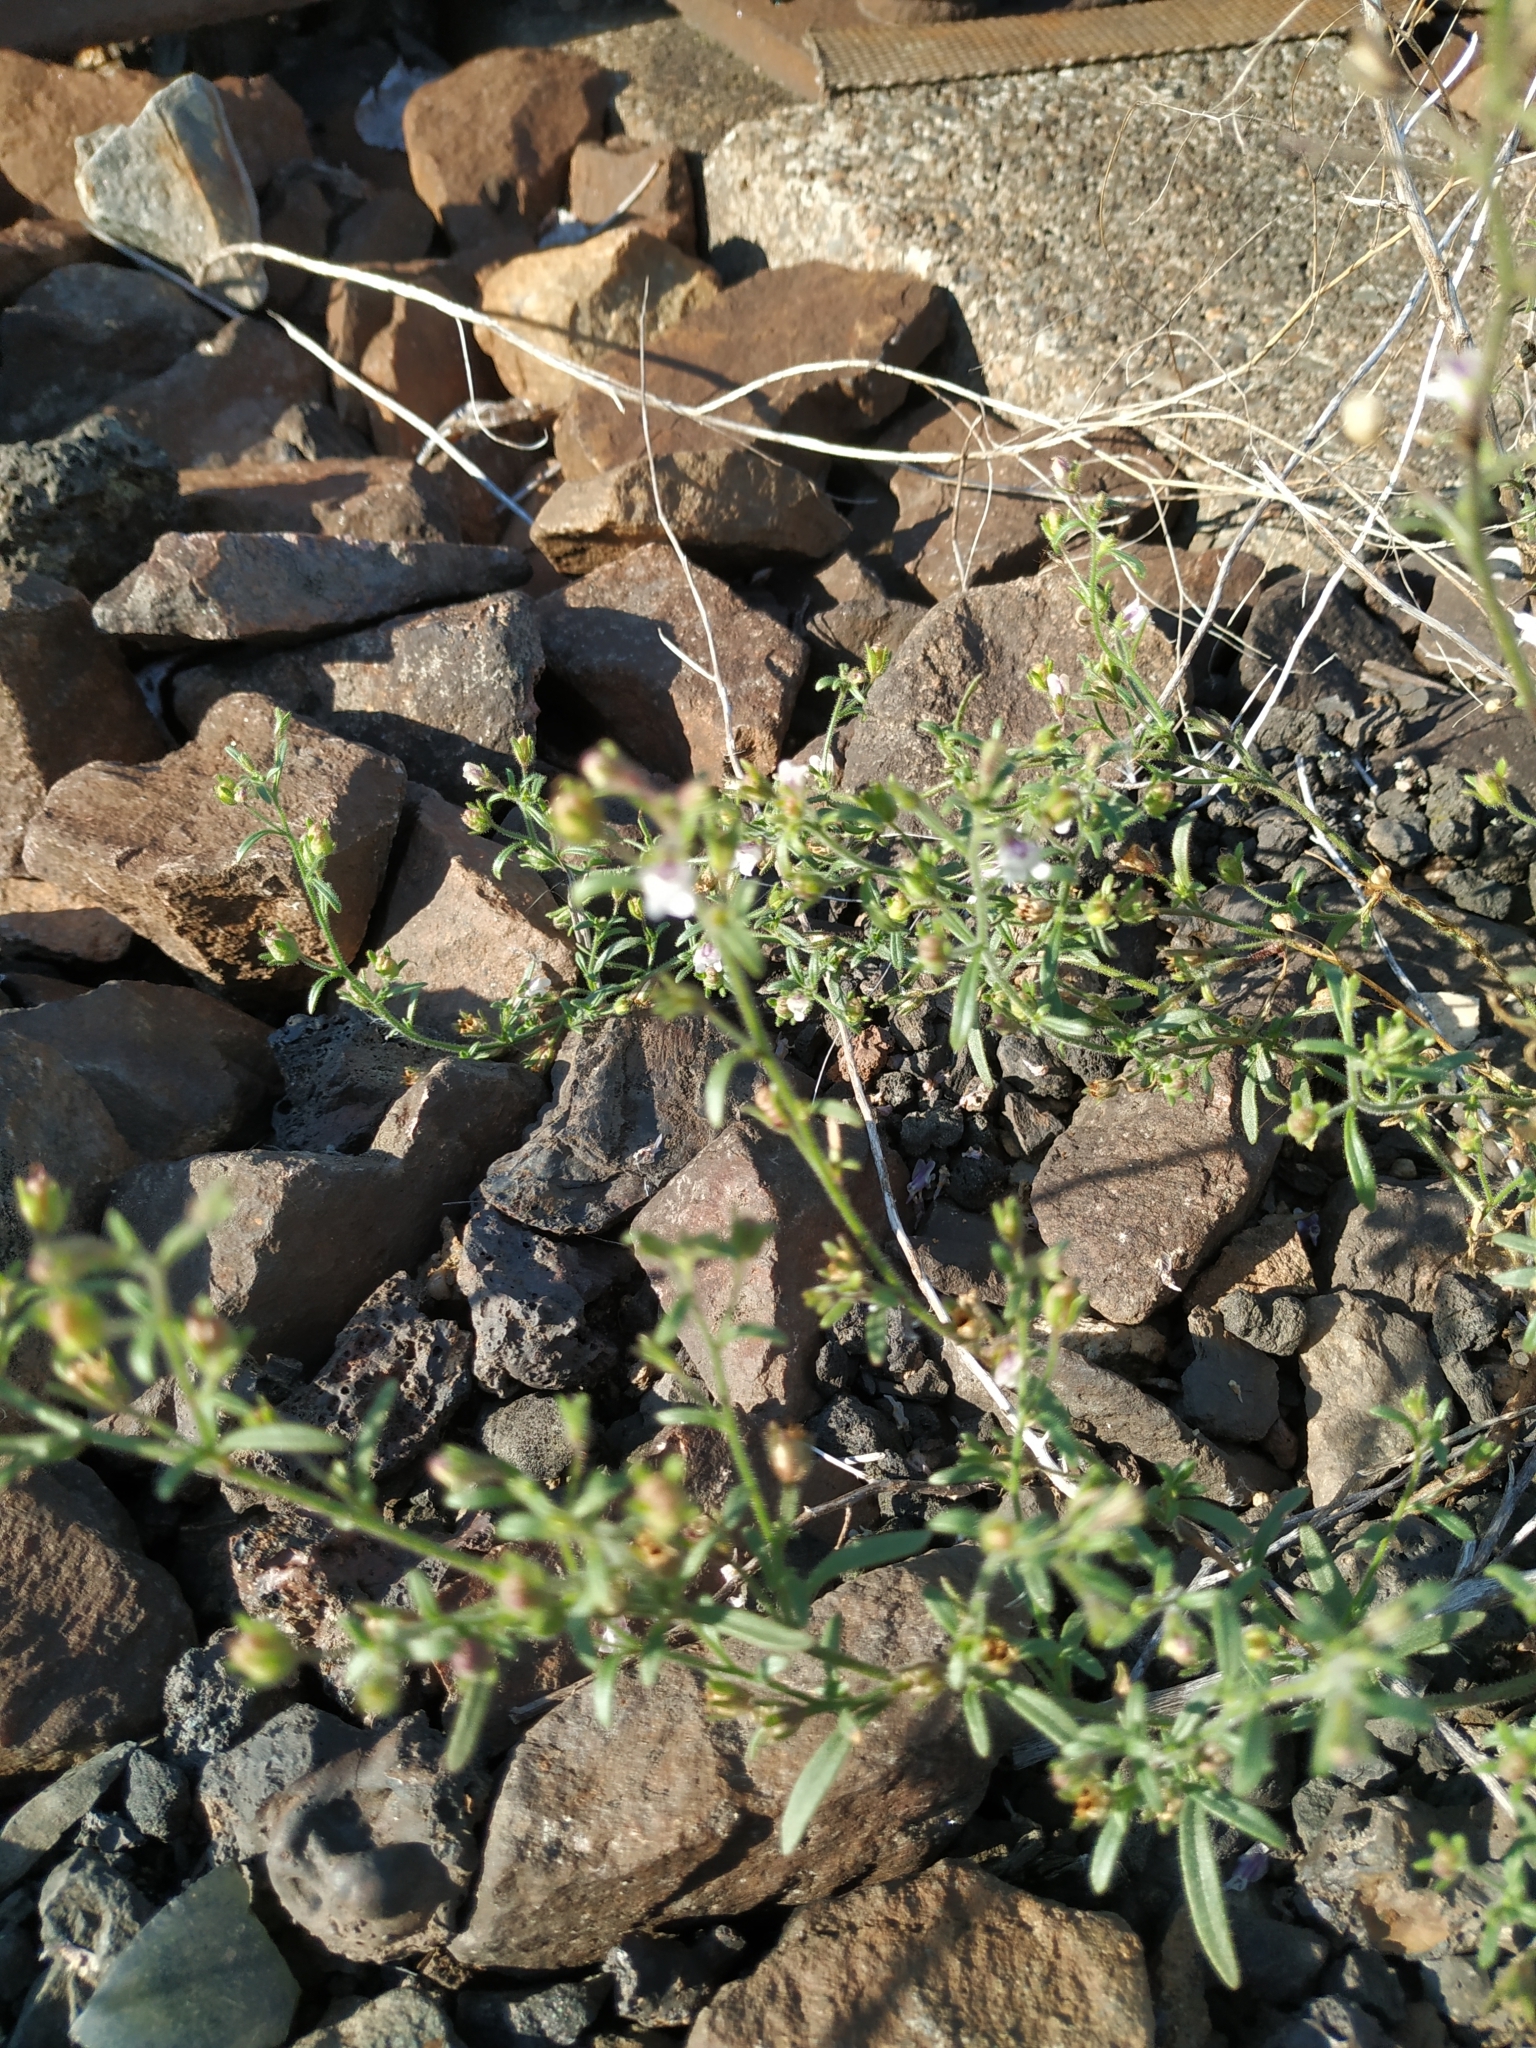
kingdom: Plantae
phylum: Tracheophyta
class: Magnoliopsida
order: Lamiales
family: Plantaginaceae
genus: Chaenorhinum
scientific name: Chaenorhinum minus
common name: Dwarf snapdragon
